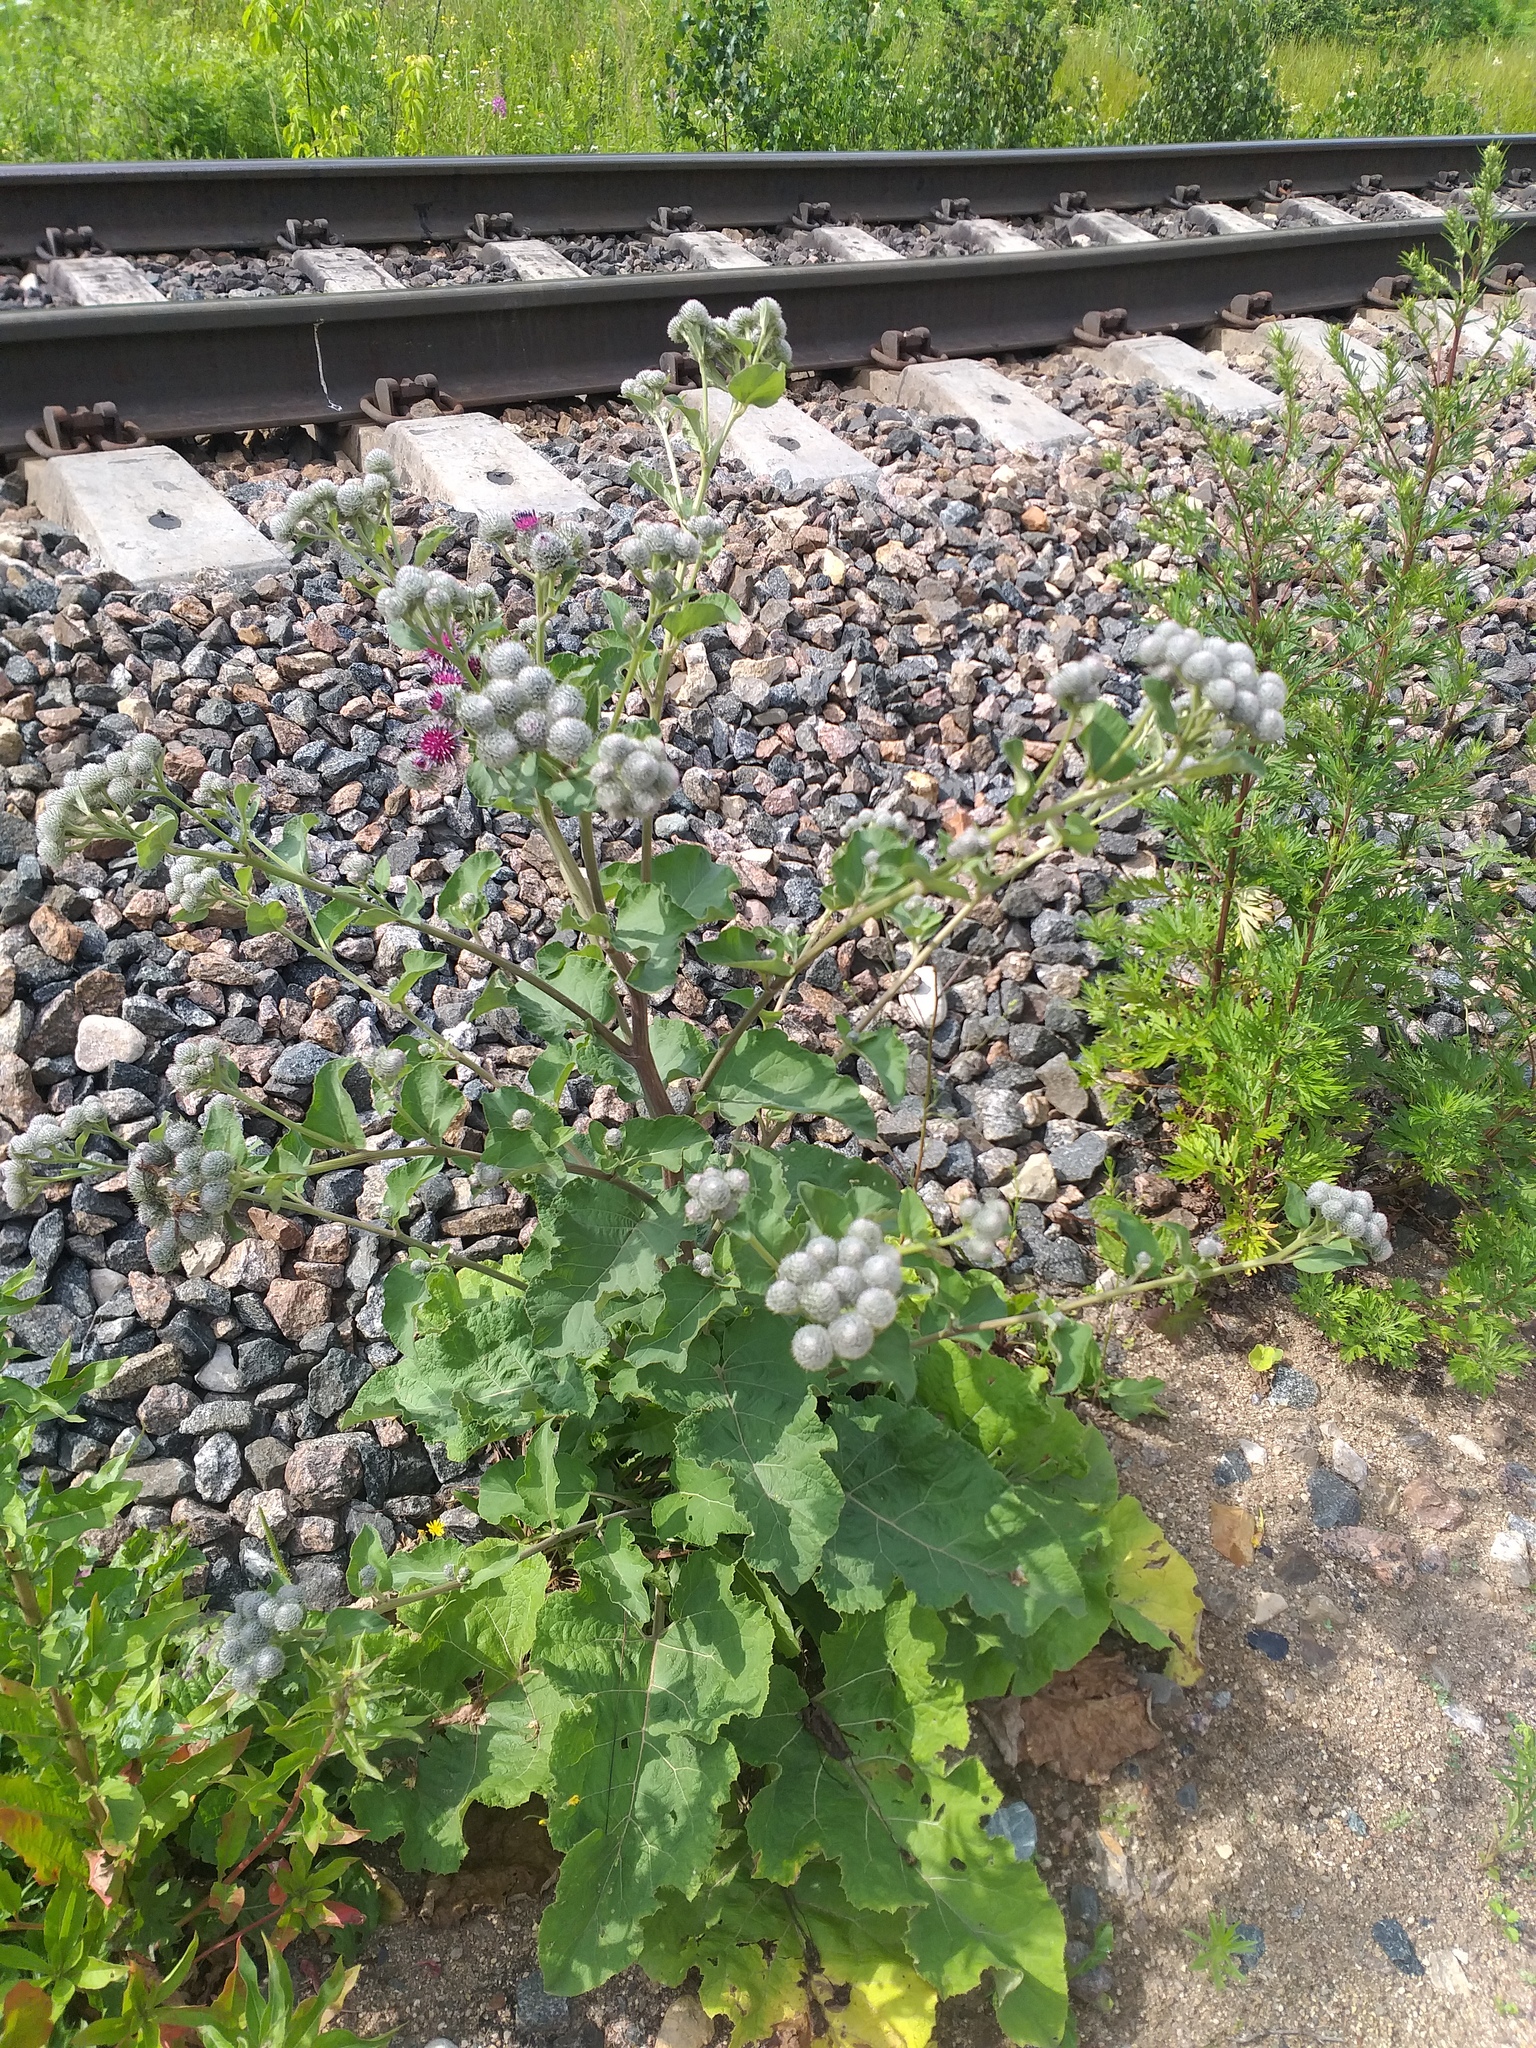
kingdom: Plantae
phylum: Tracheophyta
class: Magnoliopsida
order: Asterales
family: Asteraceae
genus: Arctium
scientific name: Arctium tomentosum
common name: Woolly burdock
